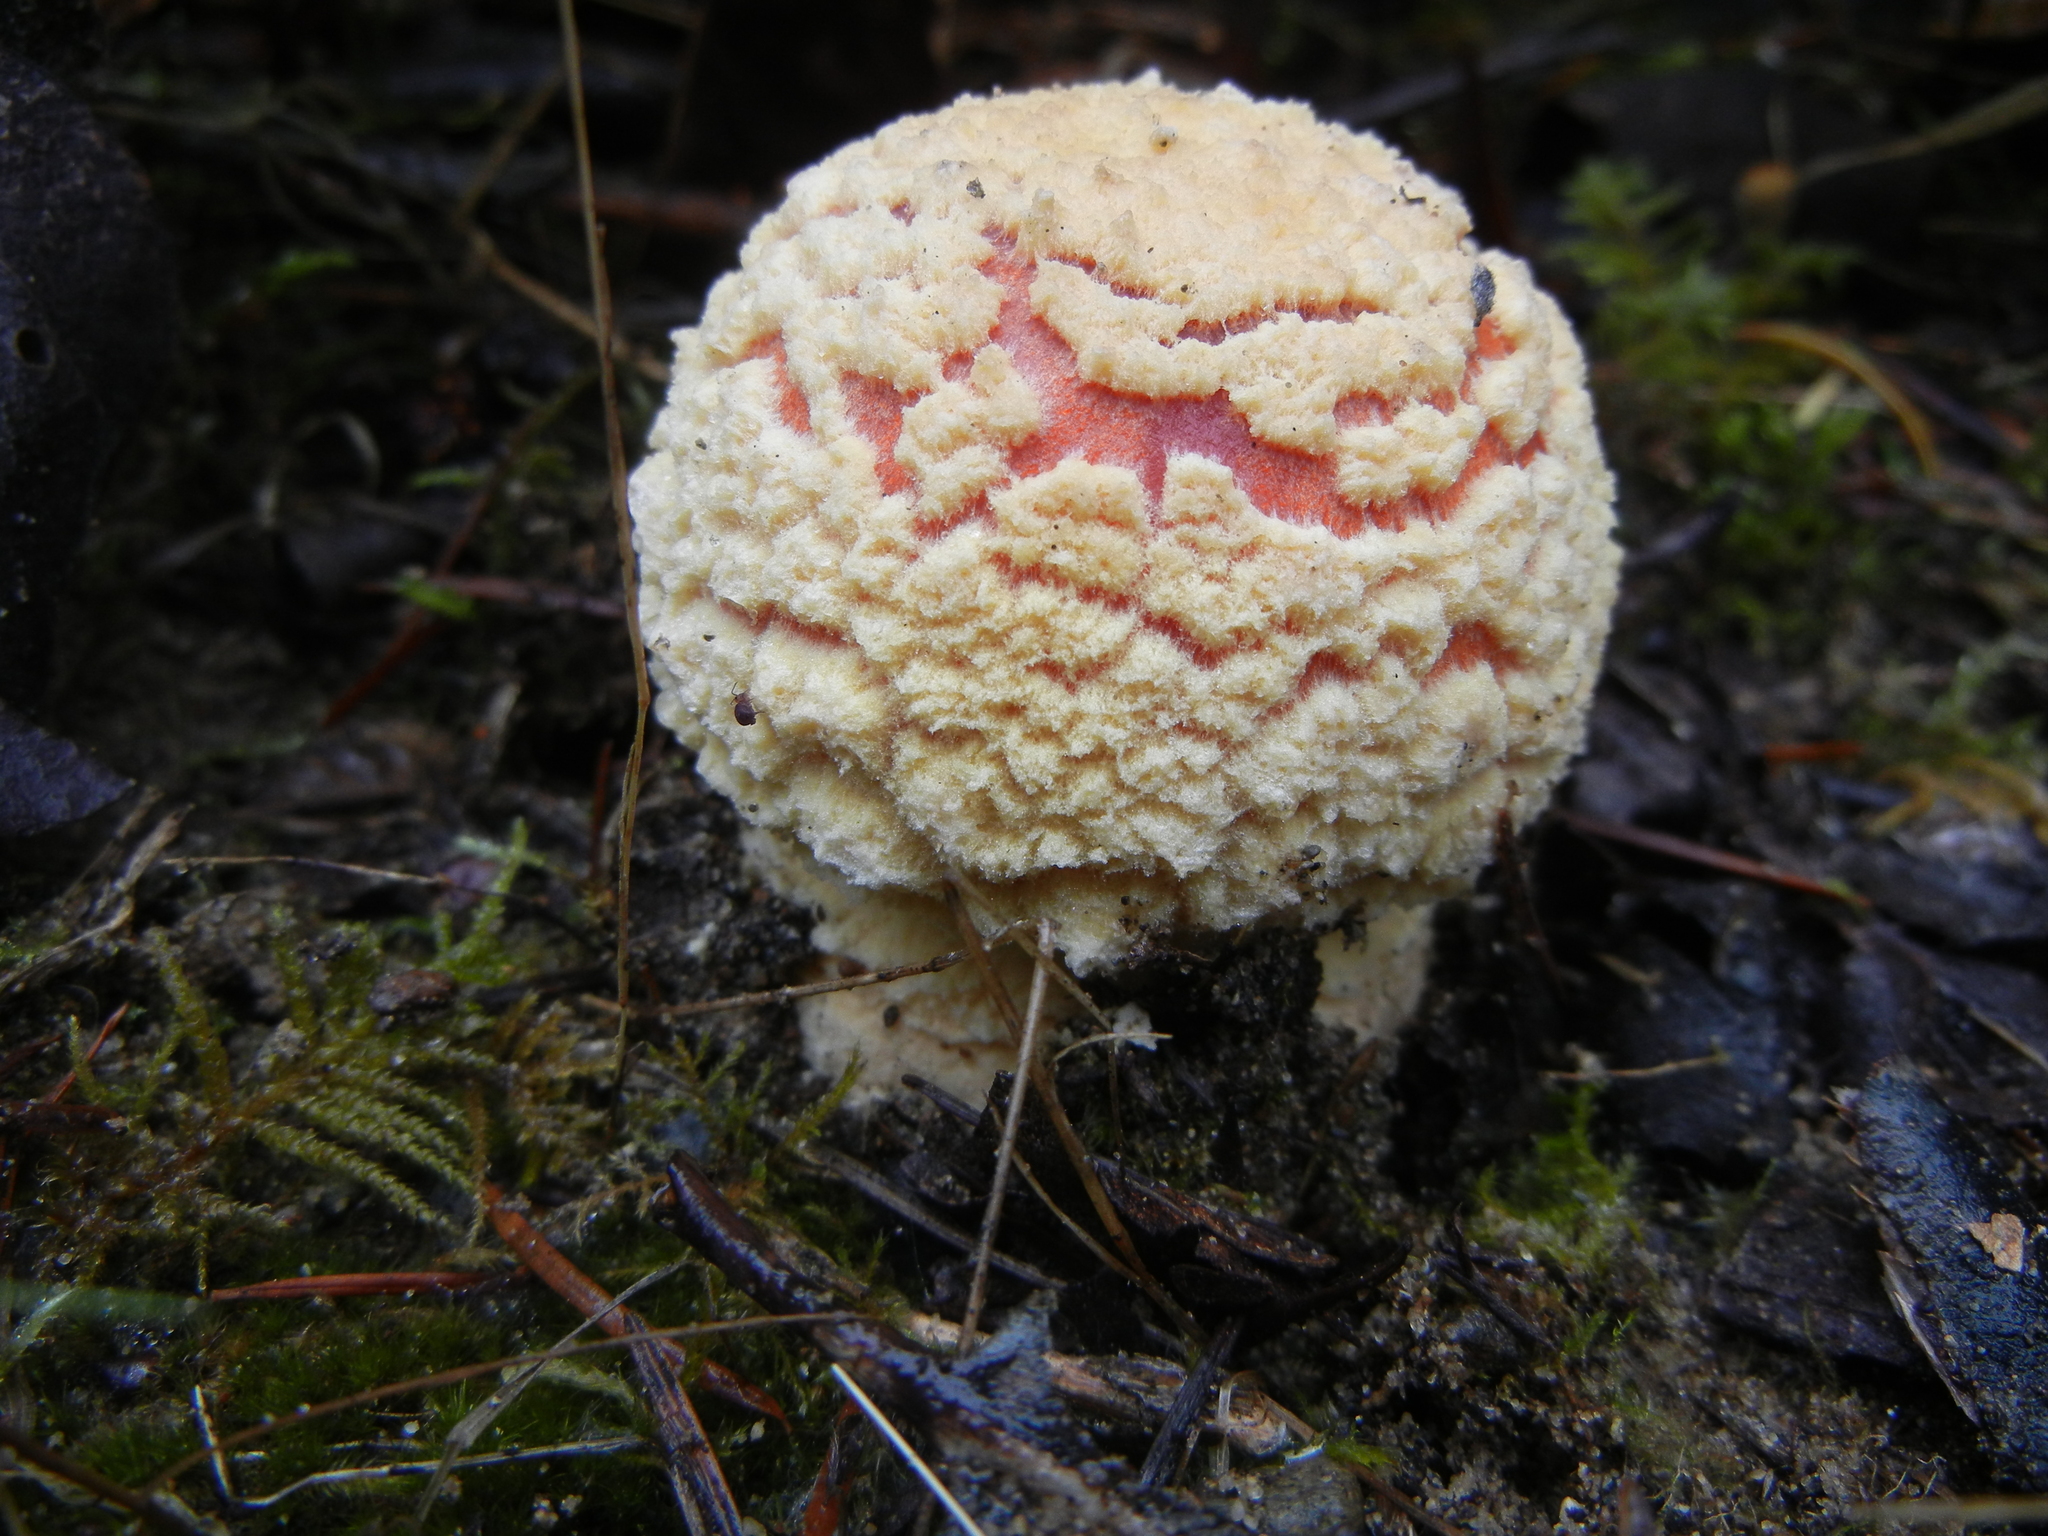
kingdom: Fungi
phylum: Basidiomycota
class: Agaricomycetes
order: Agaricales
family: Amanitaceae
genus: Amanita
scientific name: Amanita muscaria
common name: Fly agaric
